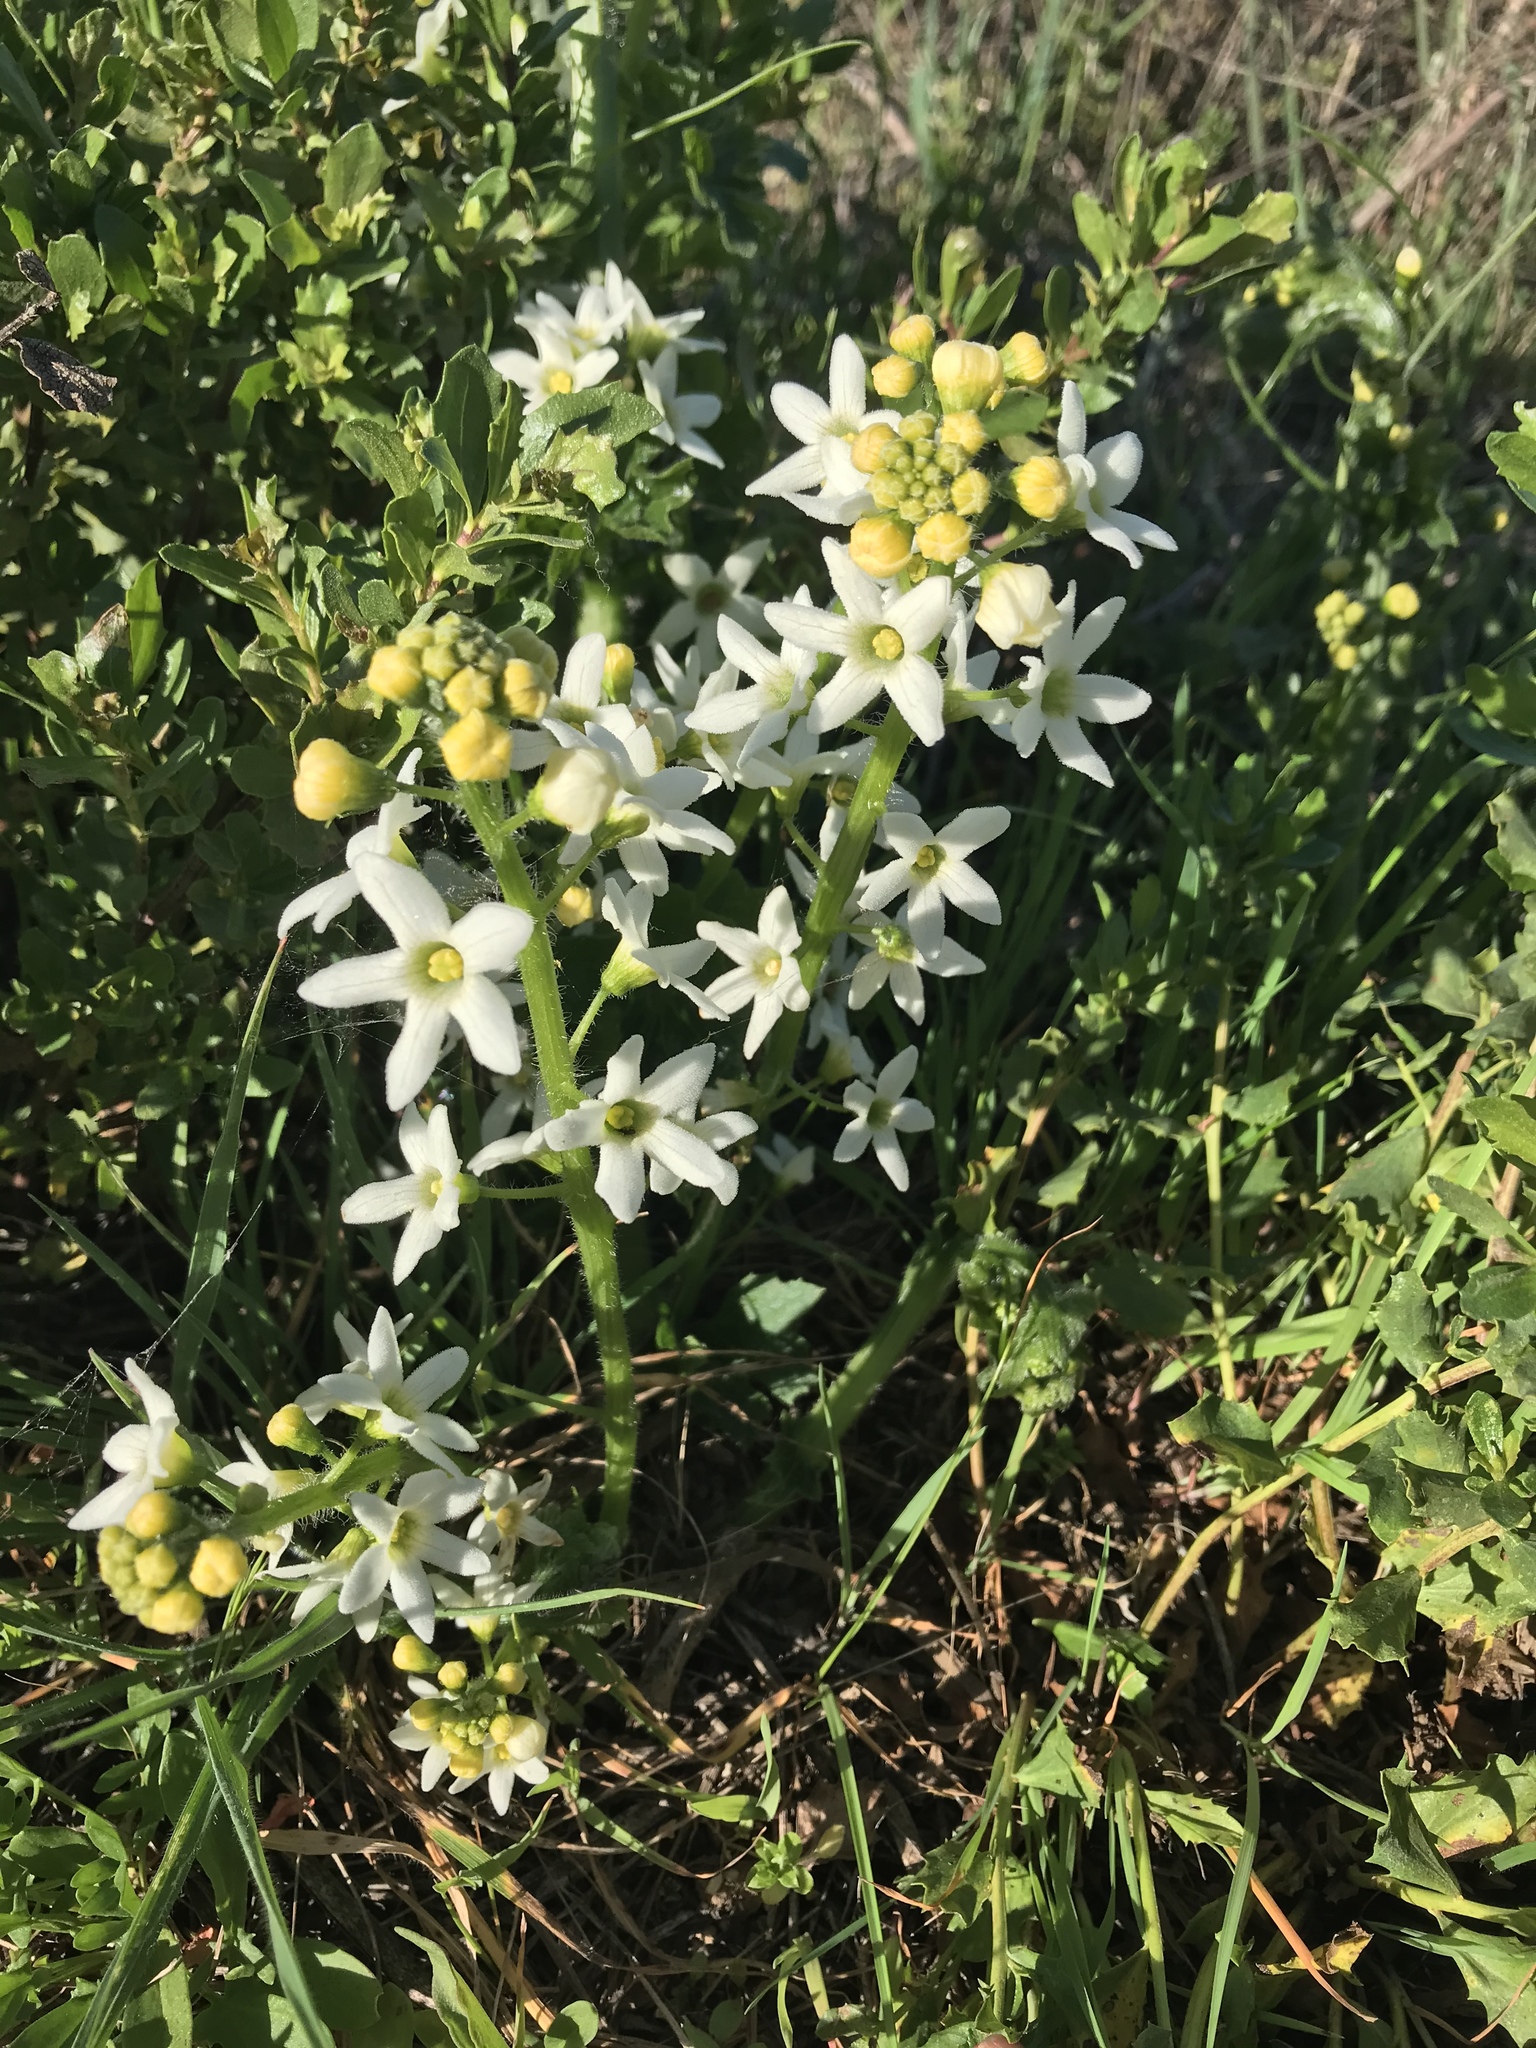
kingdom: Plantae
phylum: Tracheophyta
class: Magnoliopsida
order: Cucurbitales
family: Cucurbitaceae
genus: Marah
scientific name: Marah oregana
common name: Coastal manroot
